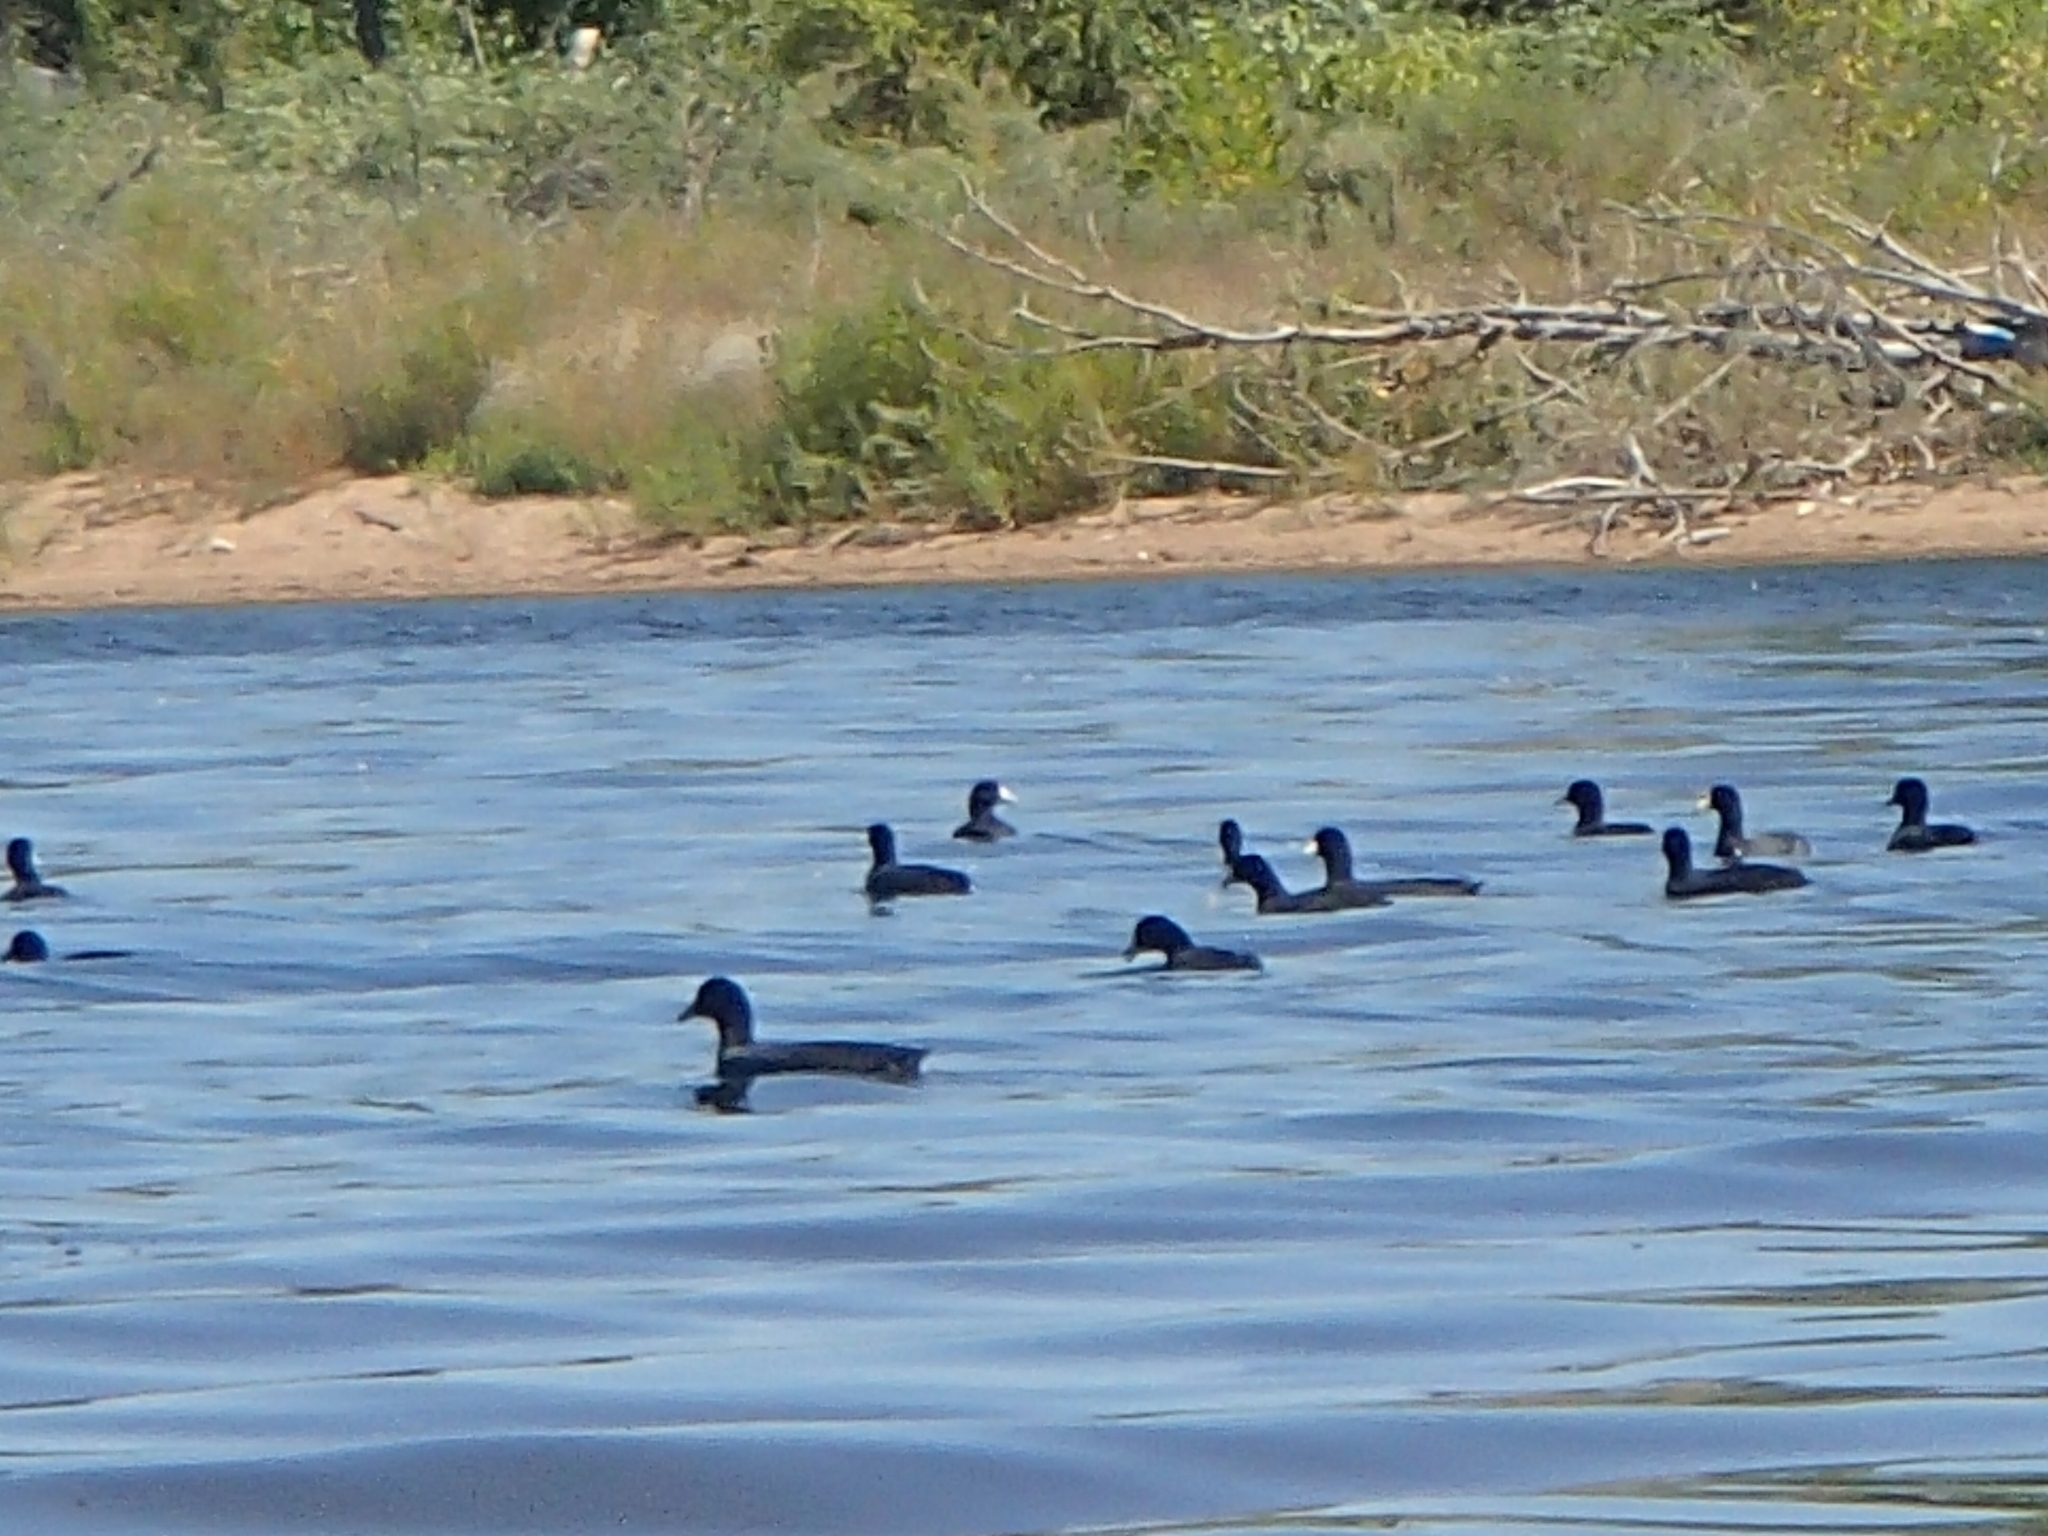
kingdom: Animalia
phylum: Chordata
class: Aves
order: Gruiformes
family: Rallidae
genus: Fulica
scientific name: Fulica americana
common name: American coot
